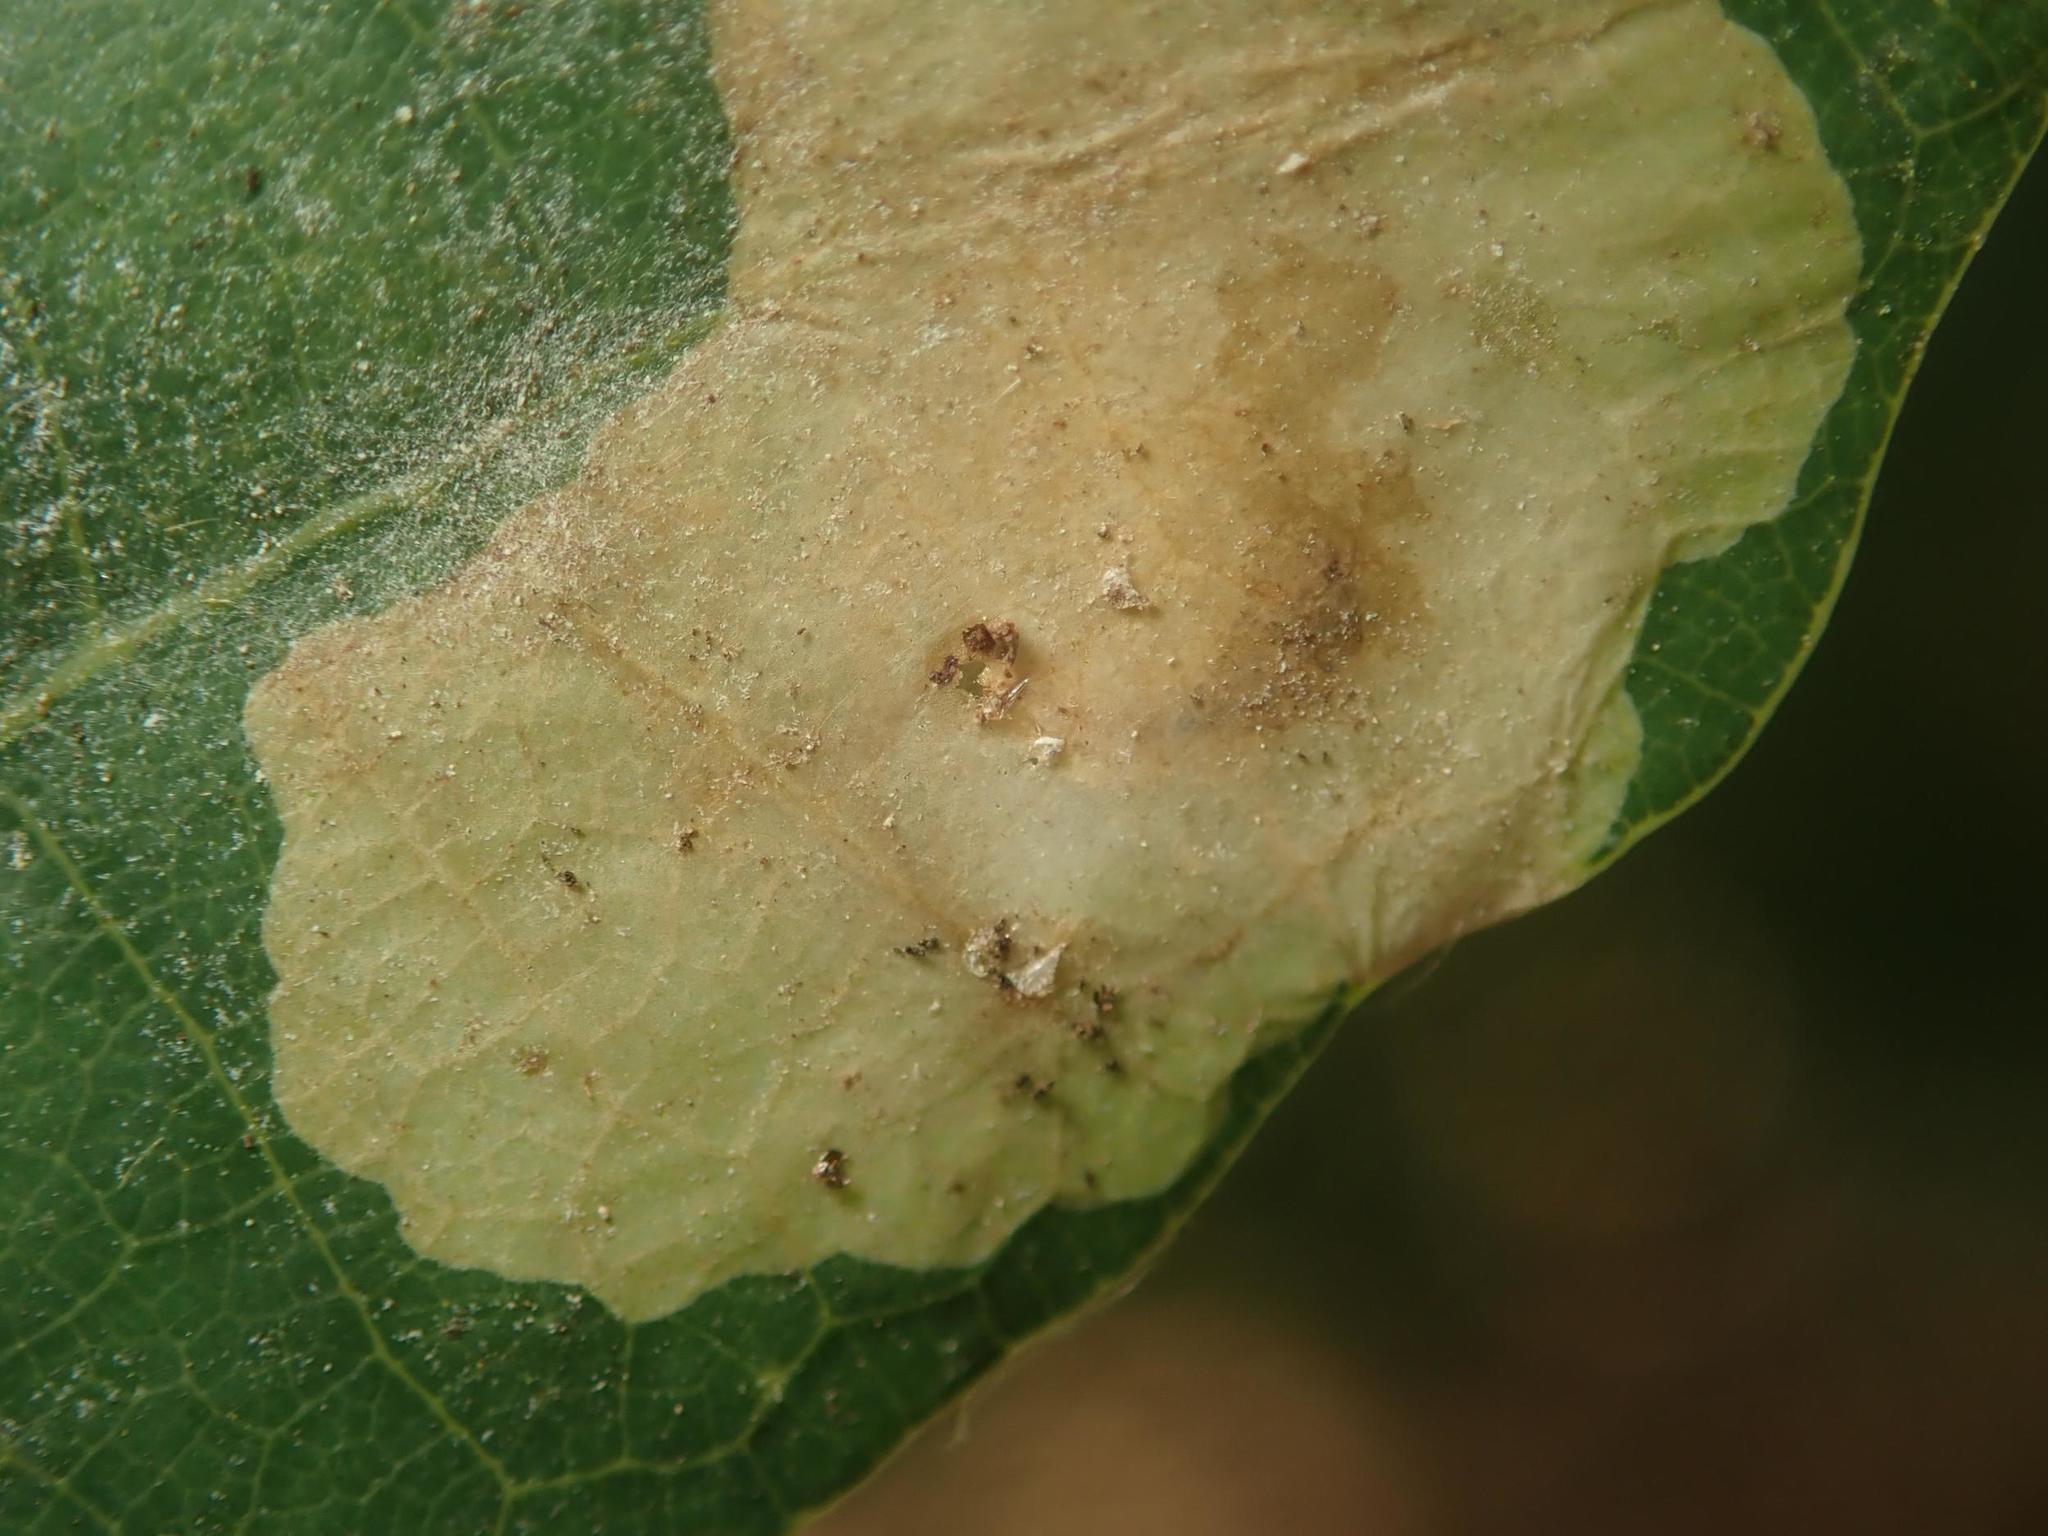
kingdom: Animalia
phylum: Arthropoda
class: Insecta
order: Lepidoptera
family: Tischeriidae
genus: Tischeria
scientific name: Tischeria ekebladella
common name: Oak carl
